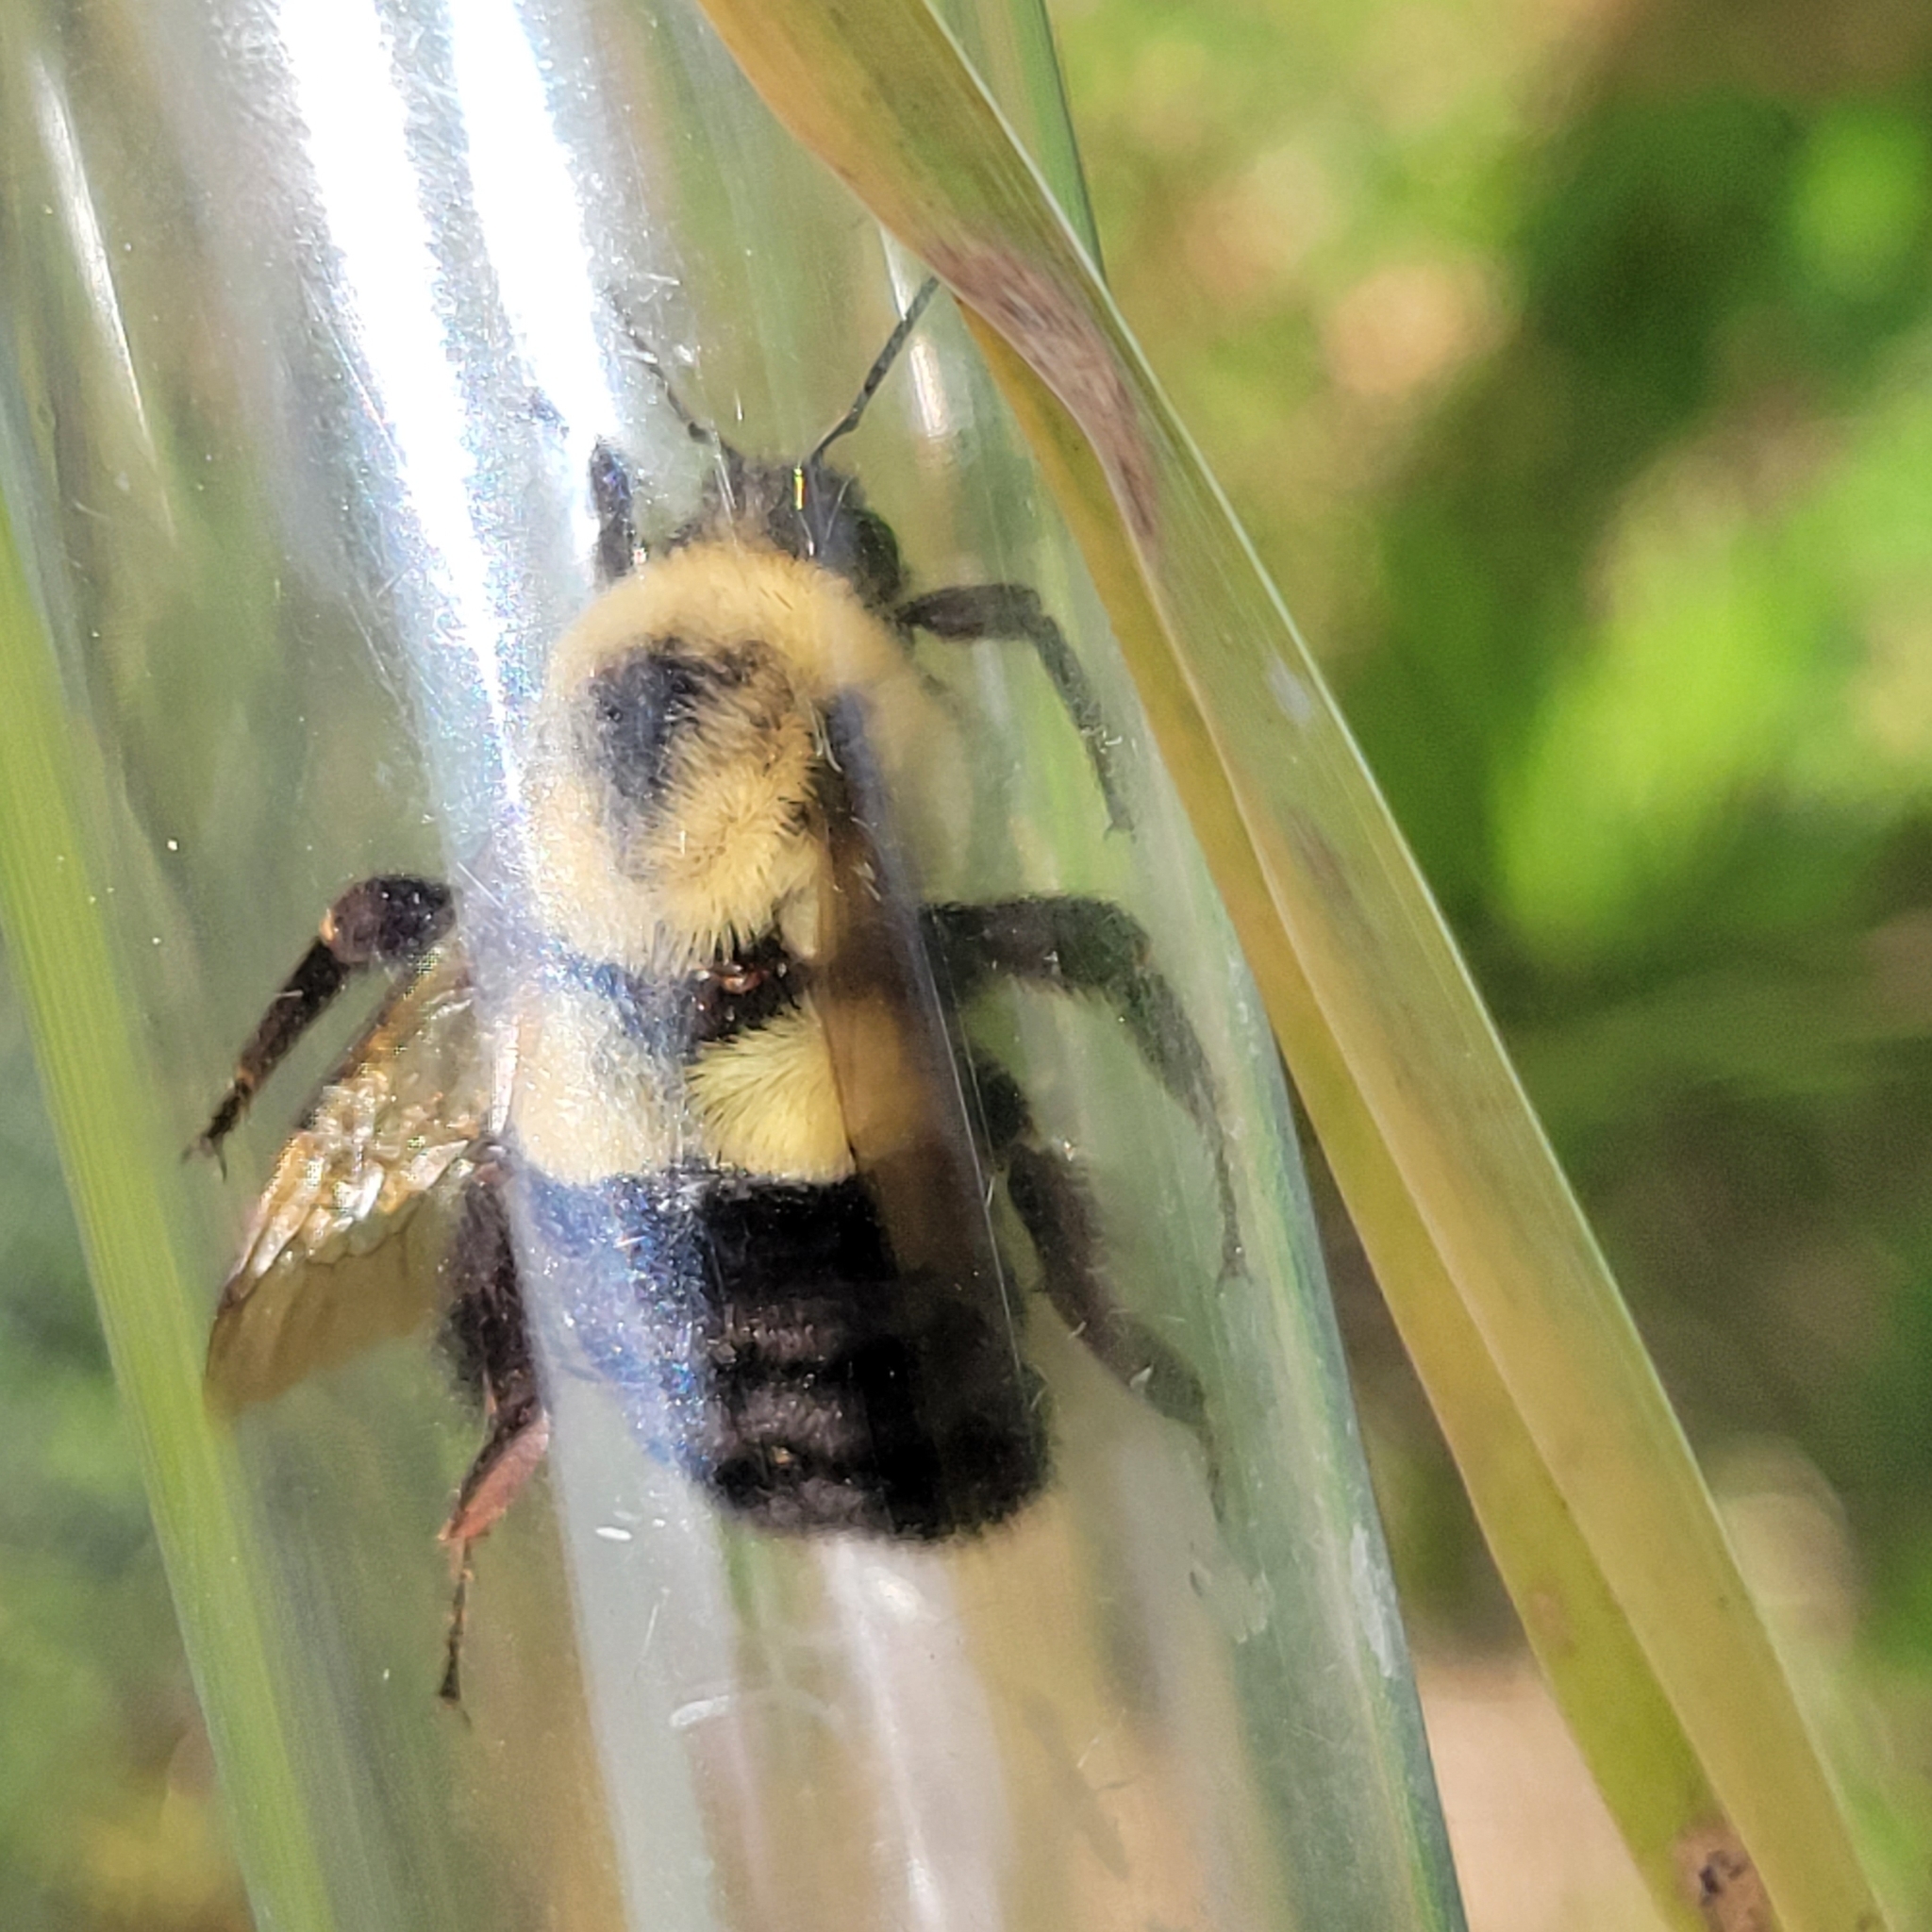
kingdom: Animalia
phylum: Arthropoda
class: Insecta
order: Hymenoptera
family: Apidae
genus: Bombus
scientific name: Bombus impatiens
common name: Common eastern bumble bee
